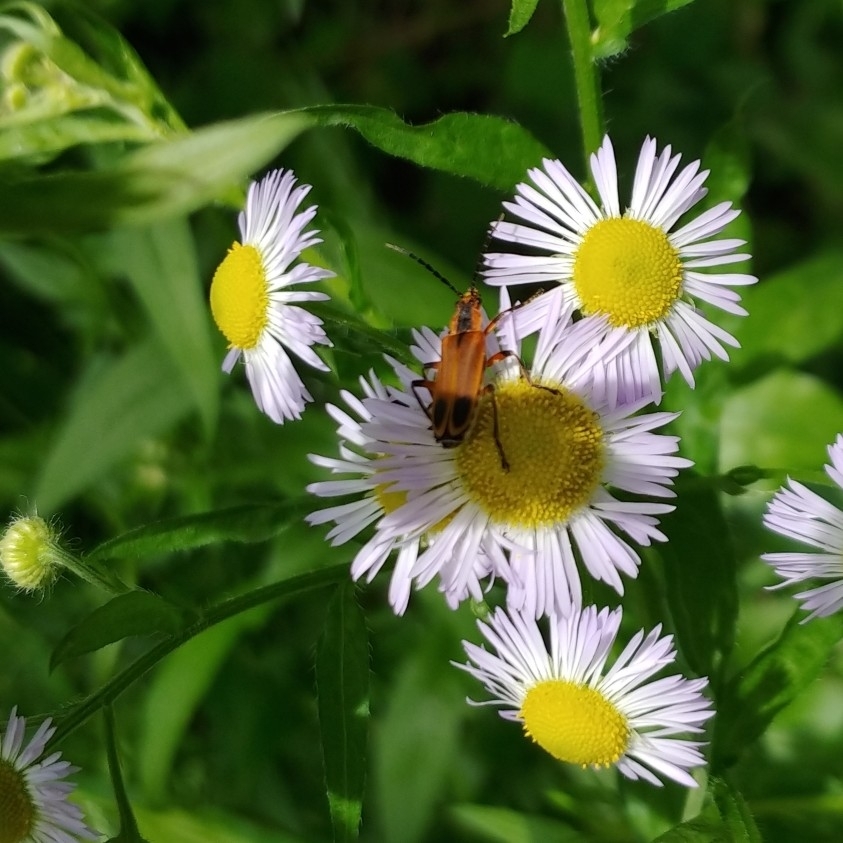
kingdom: Animalia
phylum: Arthropoda
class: Insecta
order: Coleoptera
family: Cantharidae
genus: Chauliognathus
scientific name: Chauliognathus marginatus
